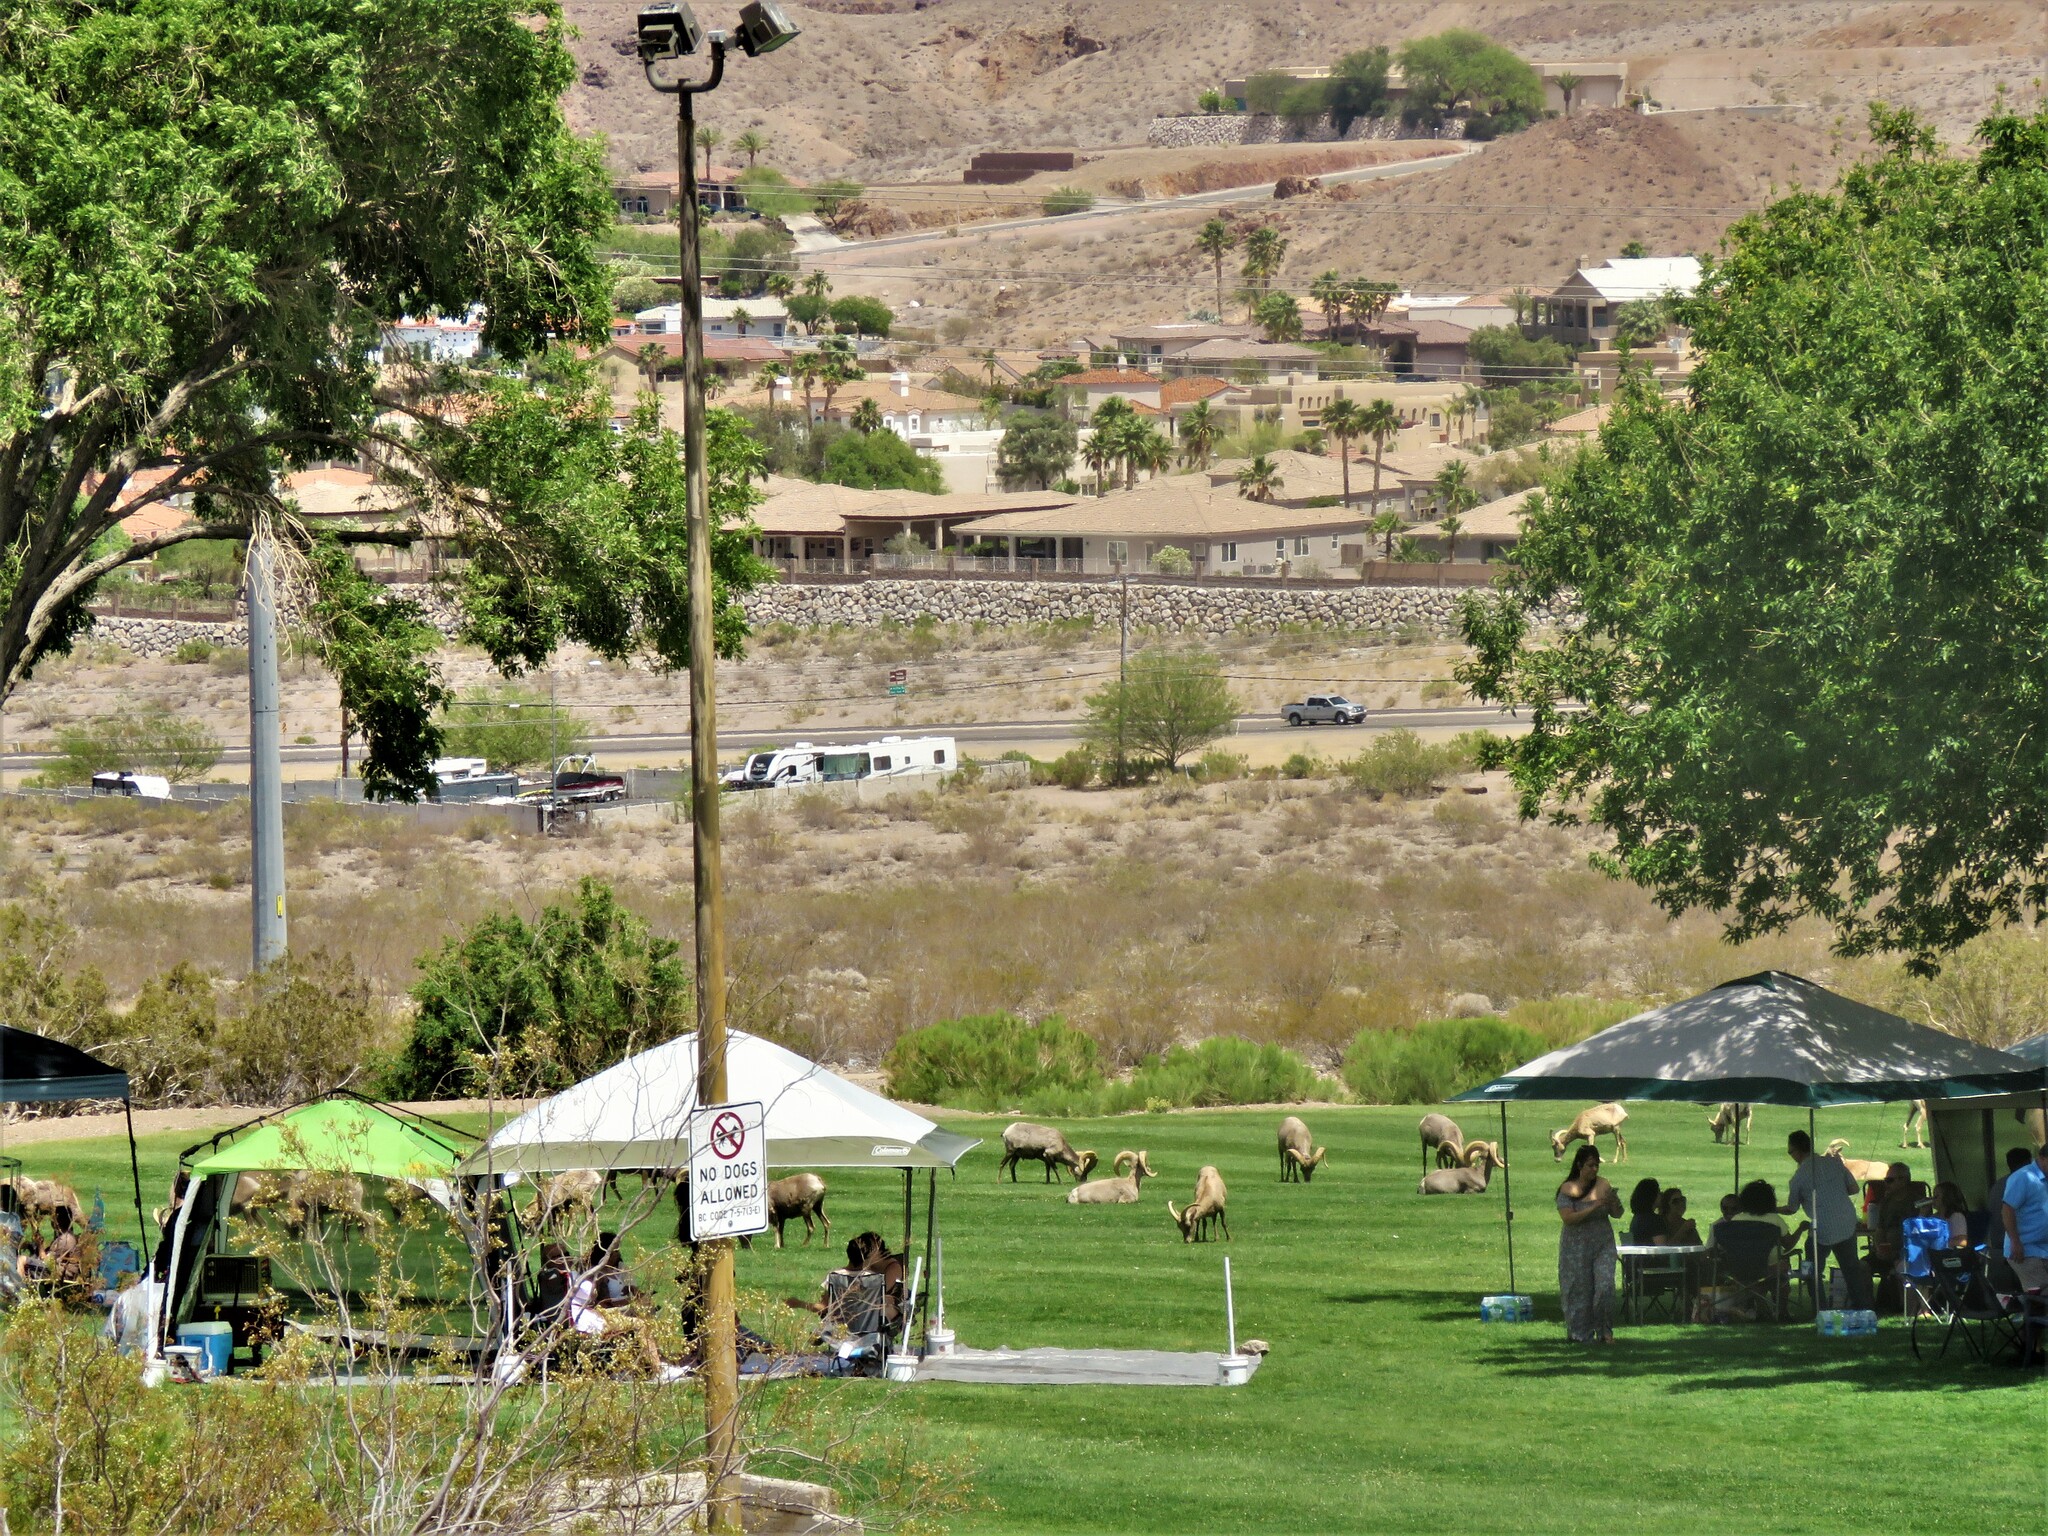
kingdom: Animalia
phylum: Chordata
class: Mammalia
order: Artiodactyla
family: Bovidae
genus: Ovis
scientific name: Ovis canadensis
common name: Bighorn sheep
